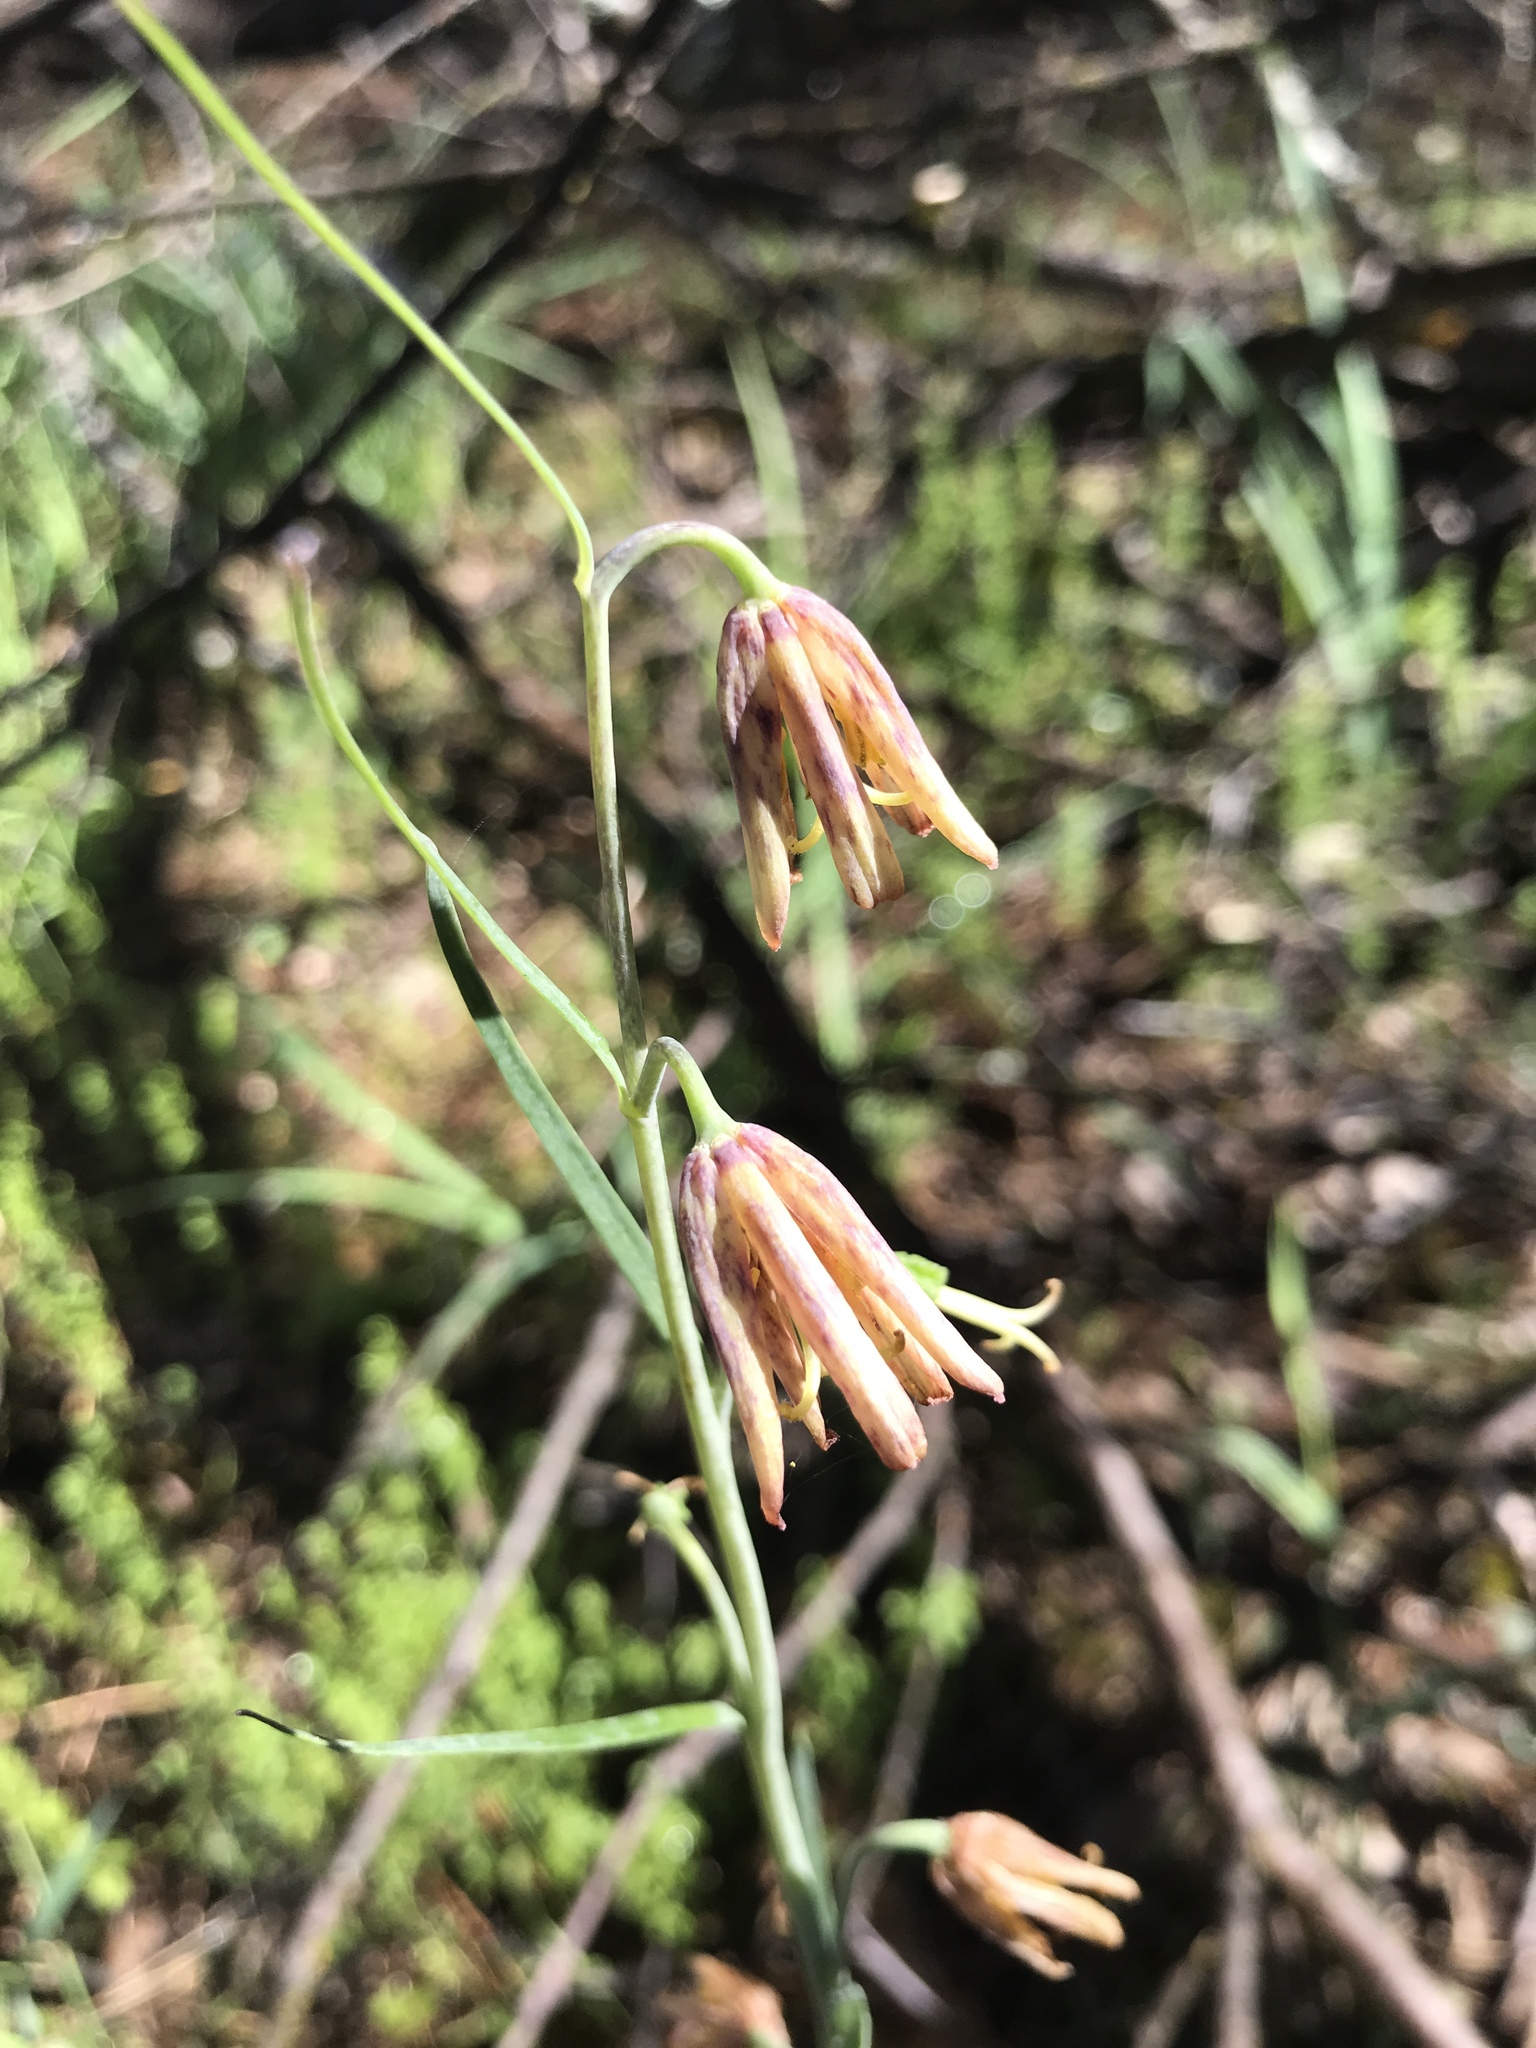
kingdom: Plantae
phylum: Tracheophyta
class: Liliopsida
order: Liliales
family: Liliaceae
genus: Fritillaria
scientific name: Fritillaria atropurpurea
